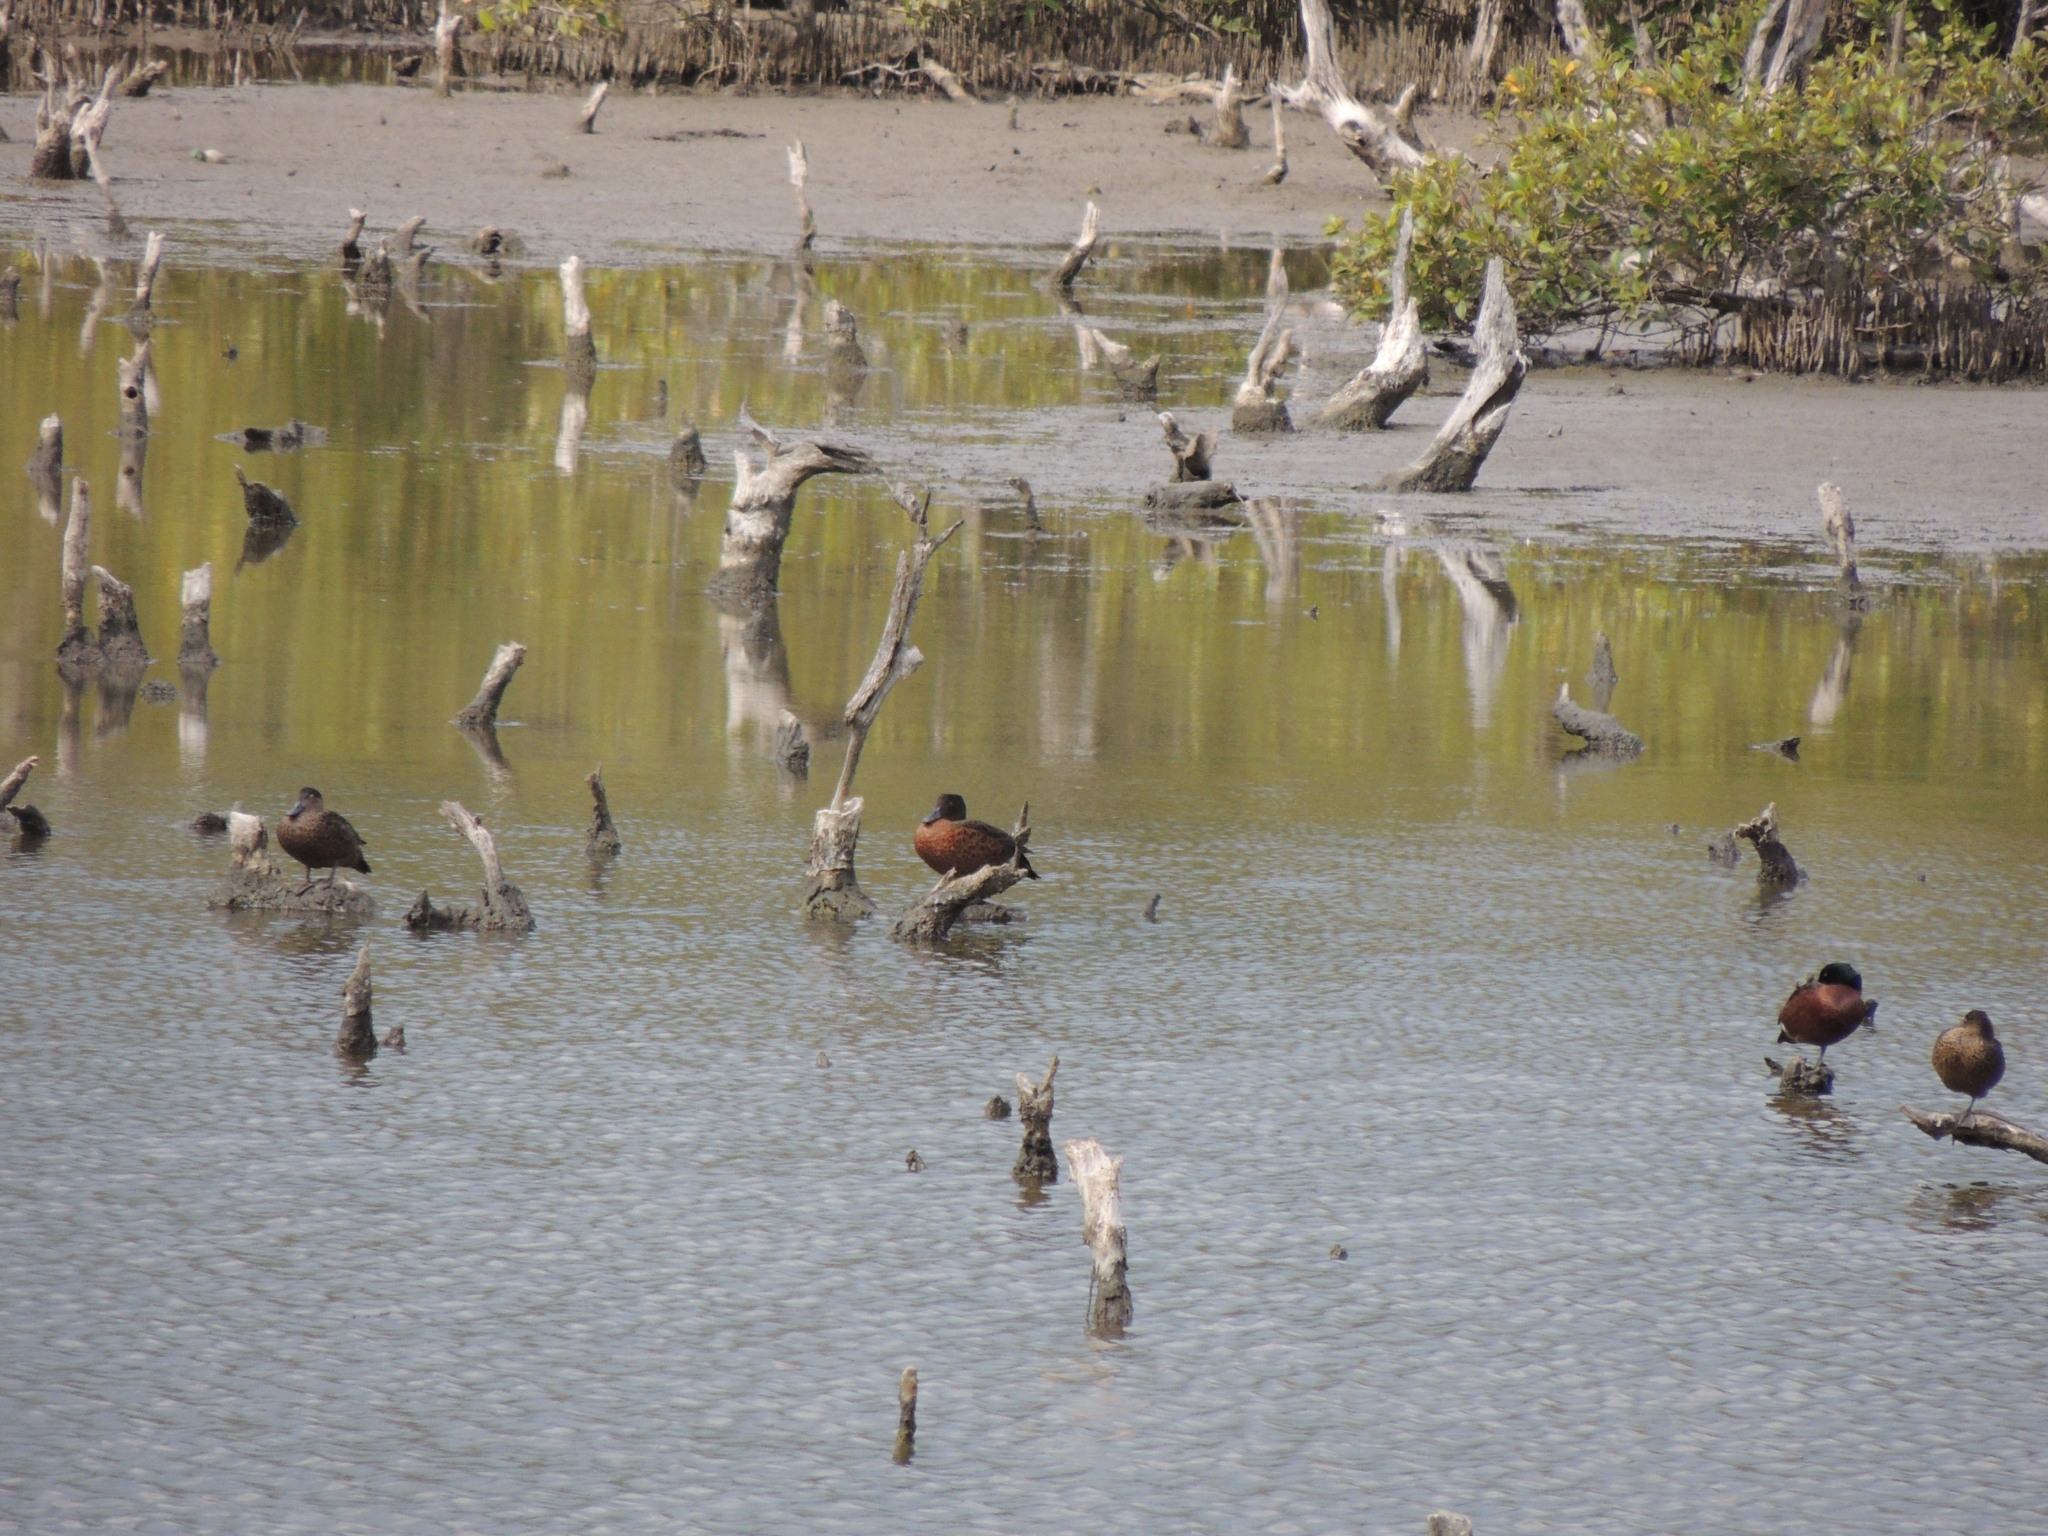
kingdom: Animalia
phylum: Chordata
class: Aves
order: Anseriformes
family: Anatidae
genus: Anas
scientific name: Anas castanea
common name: Chestnut teal
